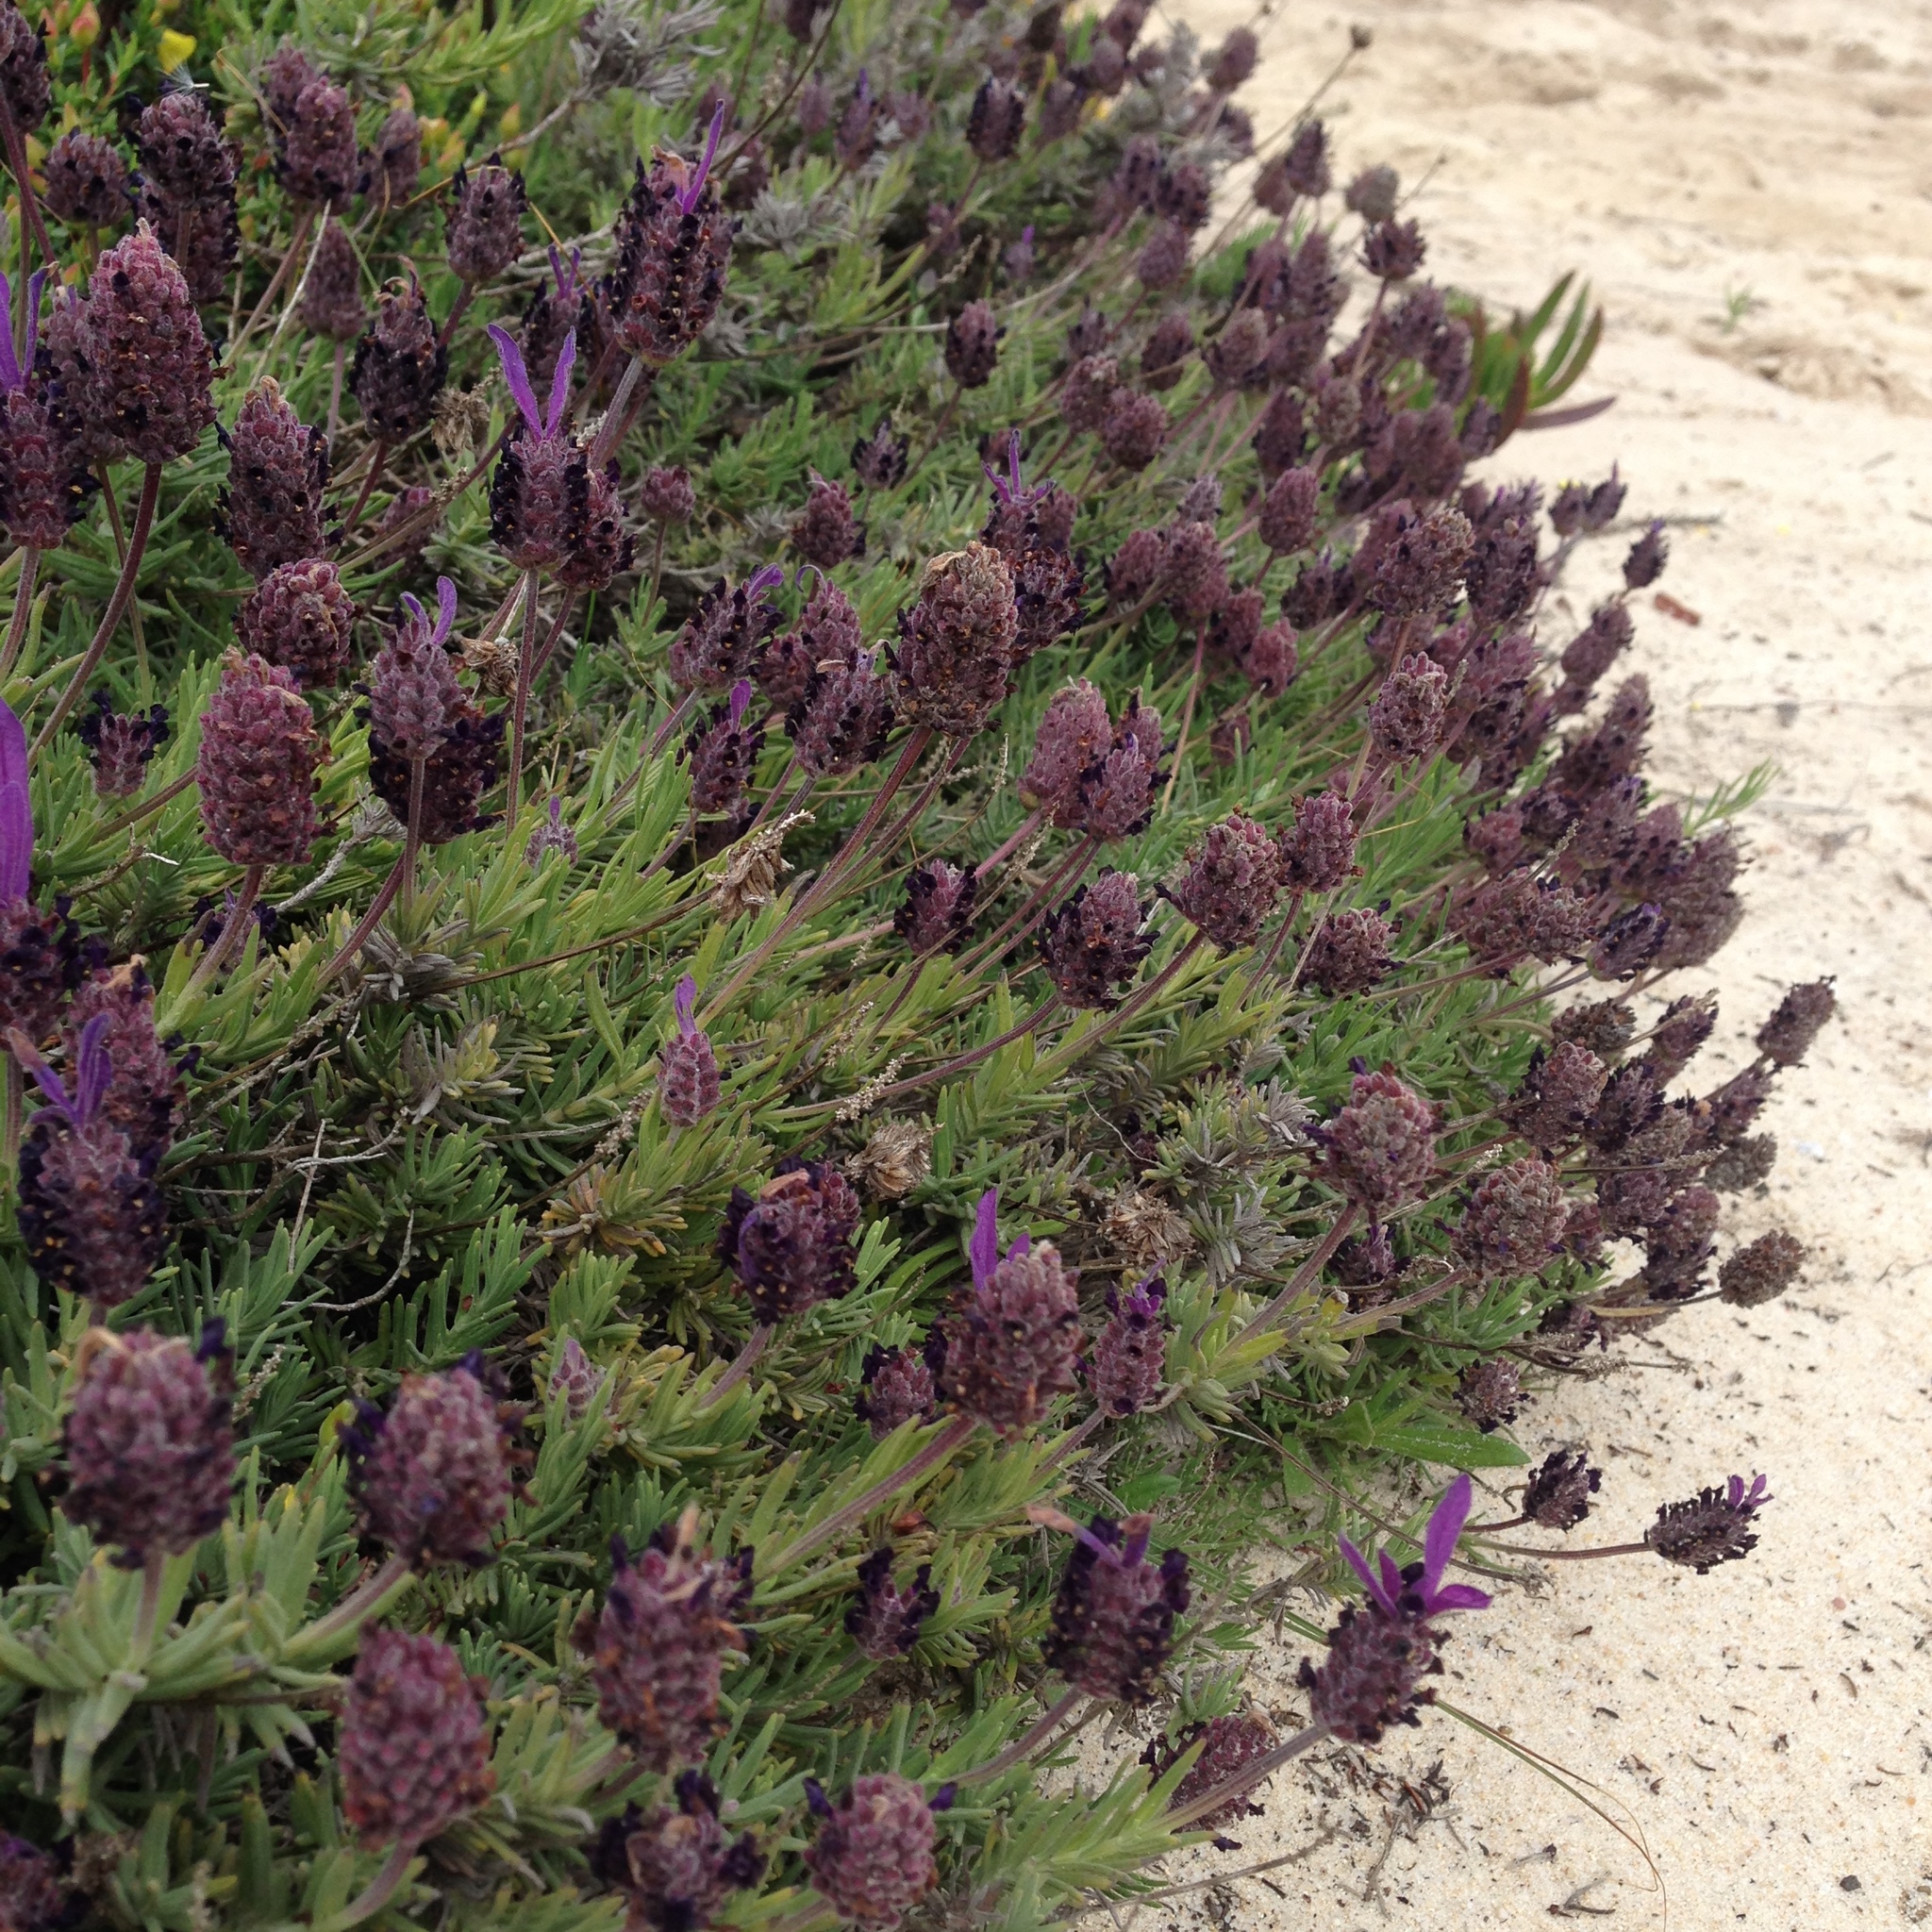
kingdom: Plantae
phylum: Tracheophyta
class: Magnoliopsida
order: Lamiales
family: Lamiaceae
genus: Lavandula
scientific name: Lavandula stoechas
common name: French lavender
